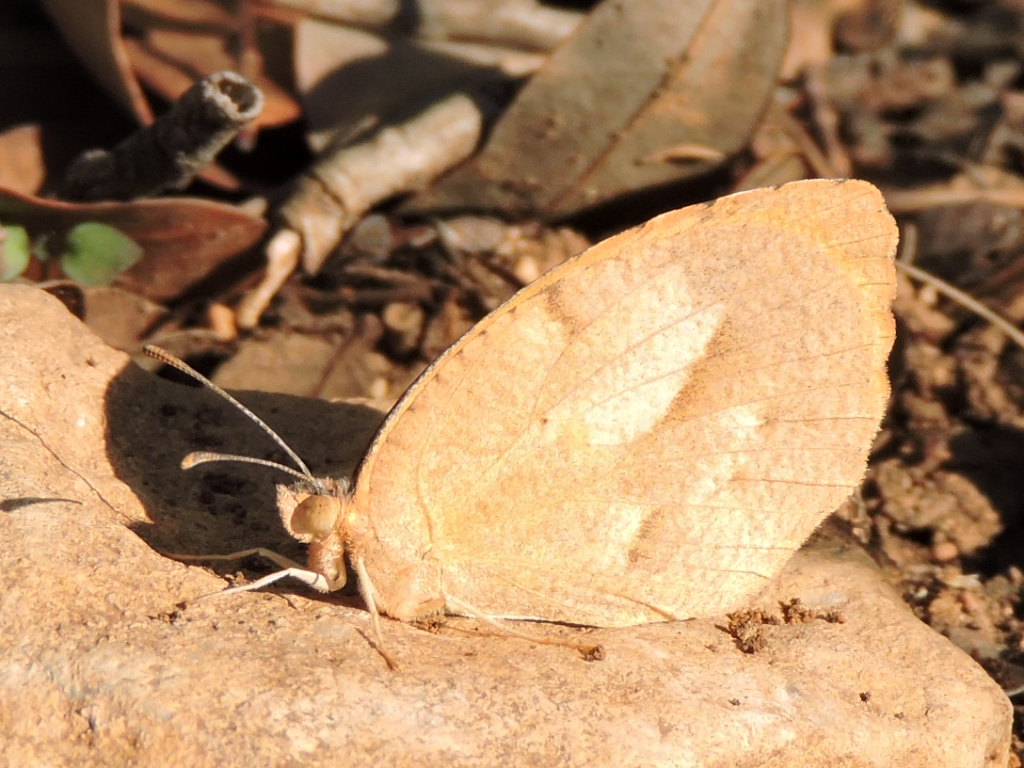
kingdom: Animalia
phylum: Arthropoda
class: Insecta
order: Lepidoptera
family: Pieridae
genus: Abaeis
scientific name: Abaeis nicippe
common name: Sleepy orange
